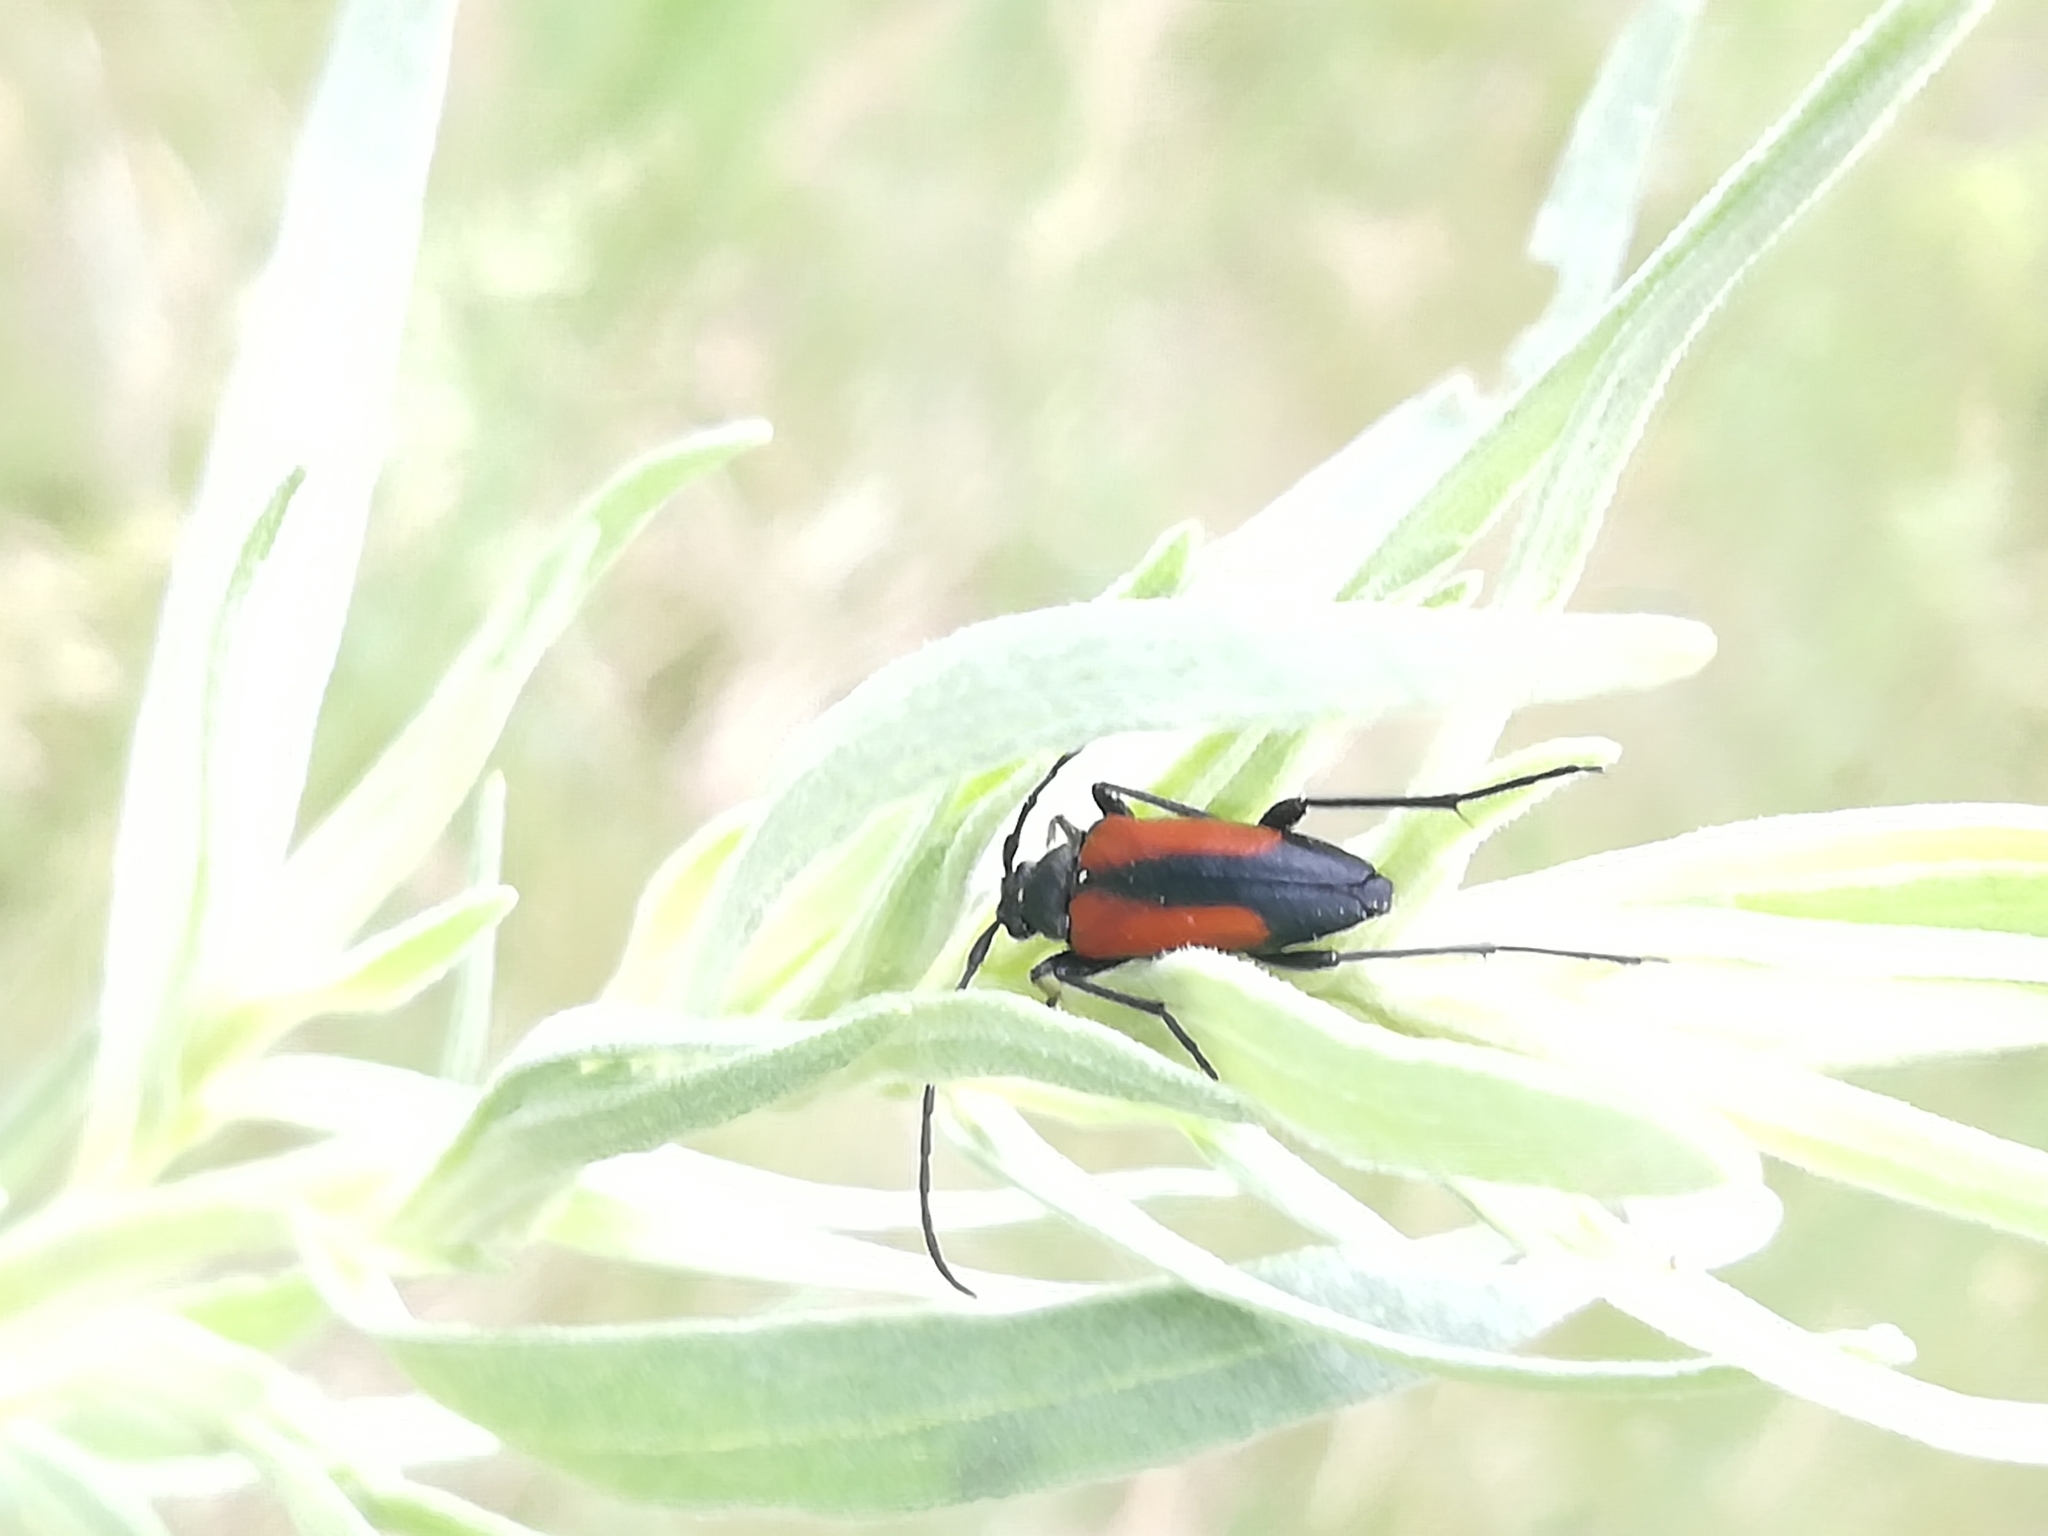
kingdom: Animalia
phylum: Arthropoda
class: Insecta
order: Coleoptera
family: Cerambycidae
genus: Stenurella
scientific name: Stenurella melanura
